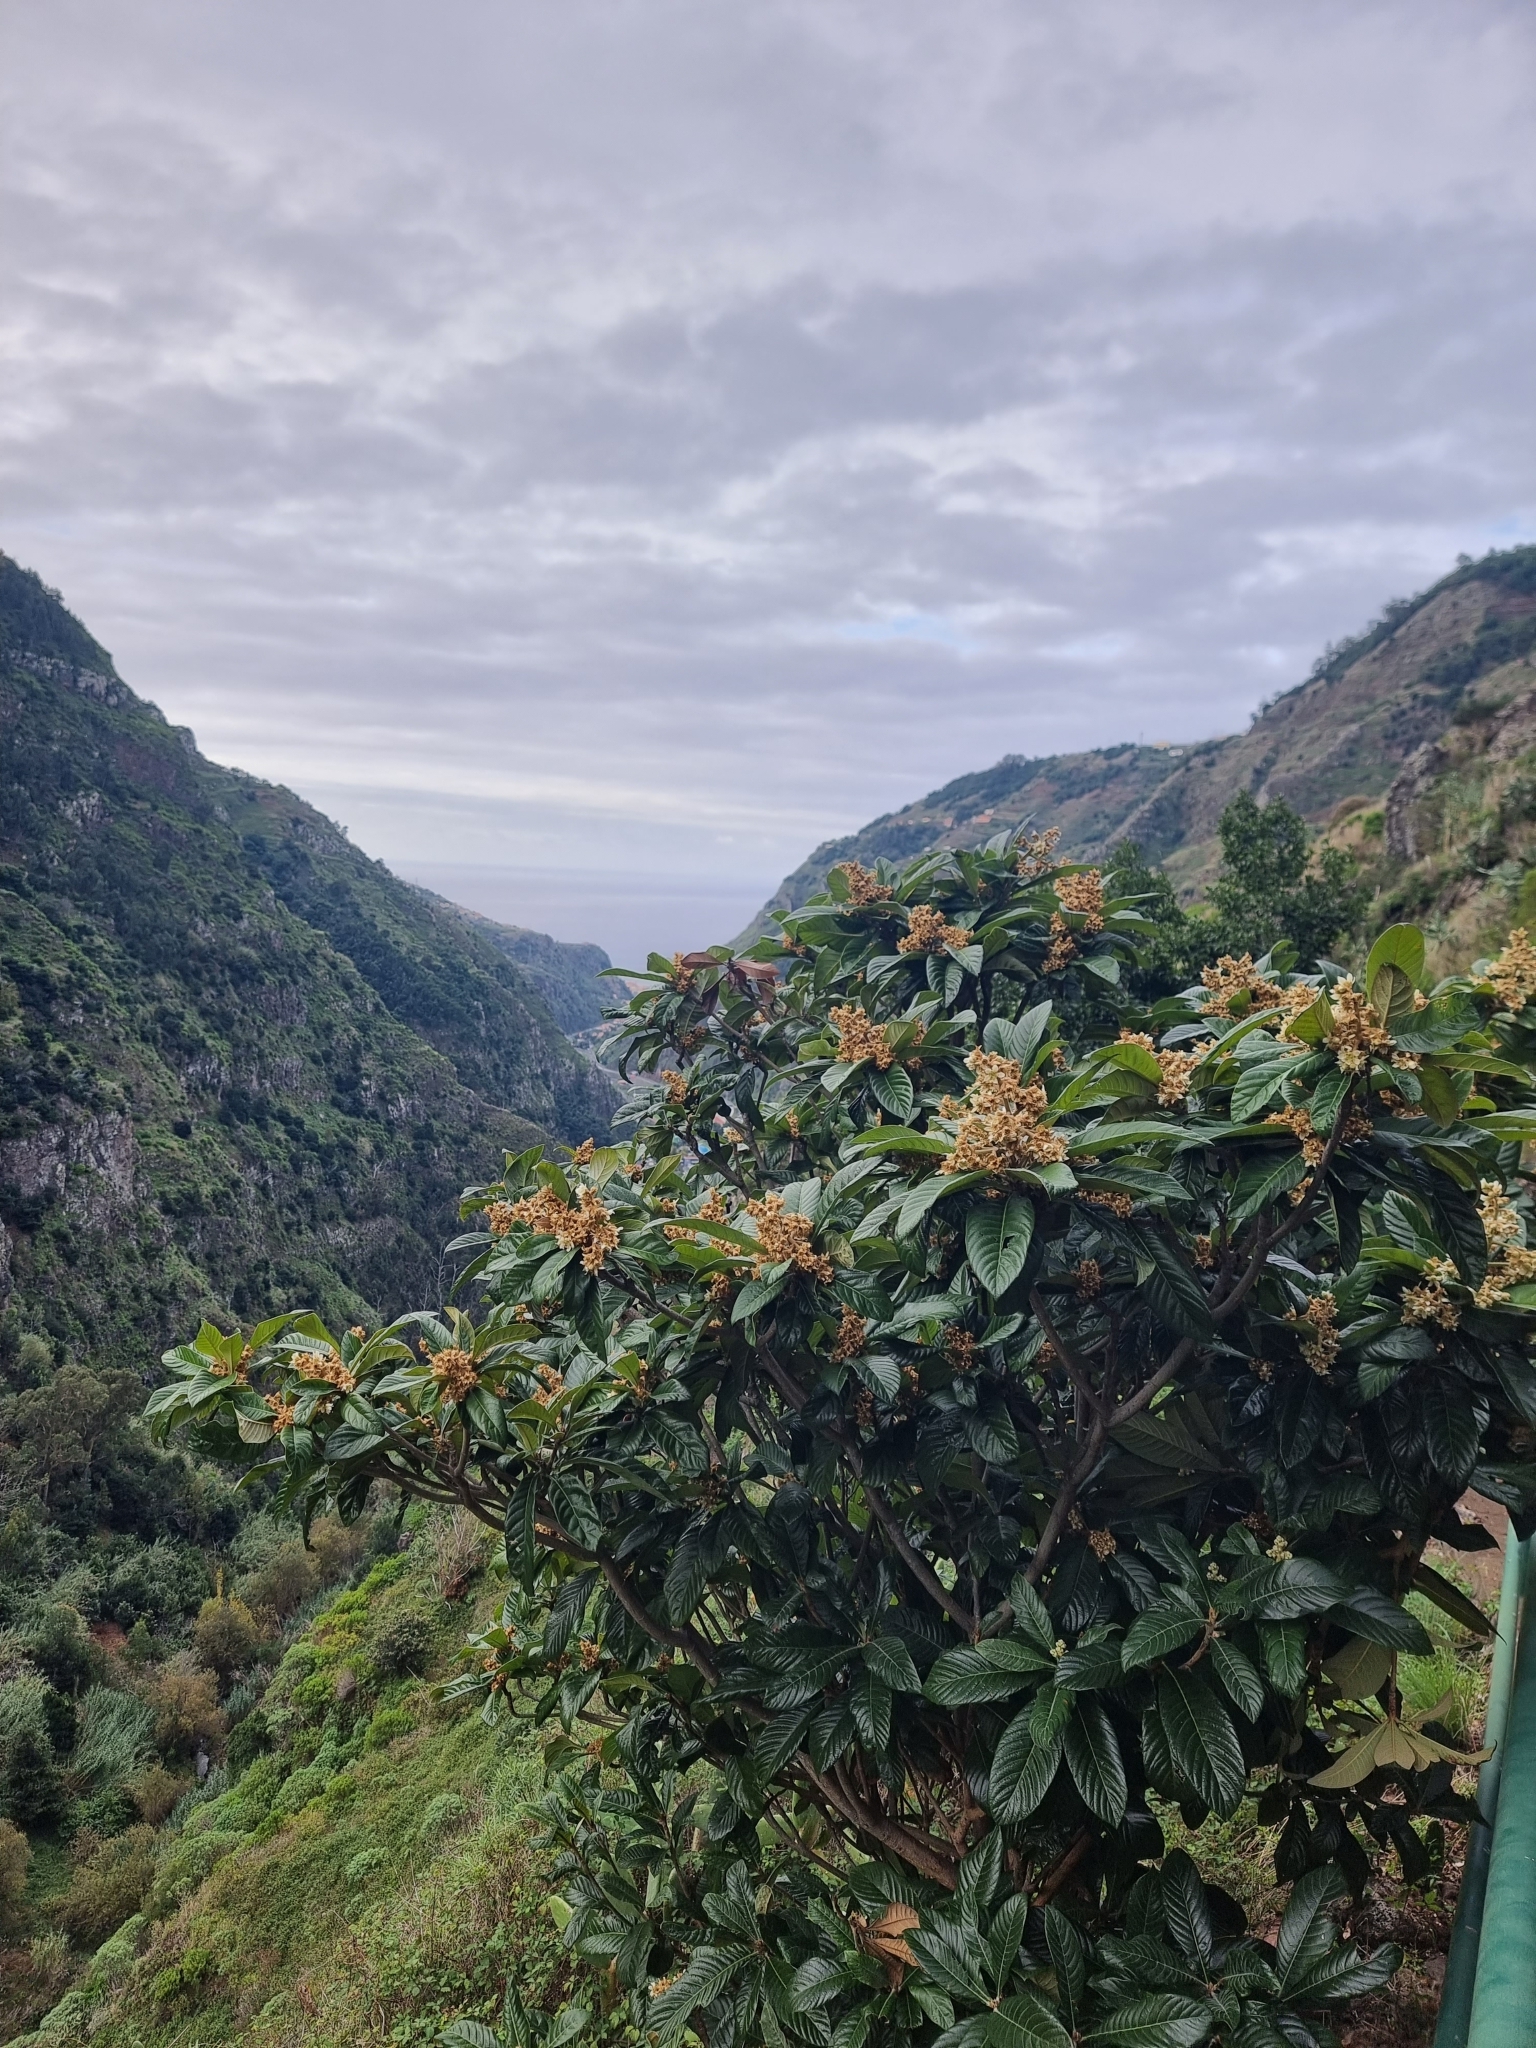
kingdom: Plantae
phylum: Tracheophyta
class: Magnoliopsida
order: Rosales
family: Rosaceae
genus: Rhaphiolepis
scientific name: Rhaphiolepis bibas
